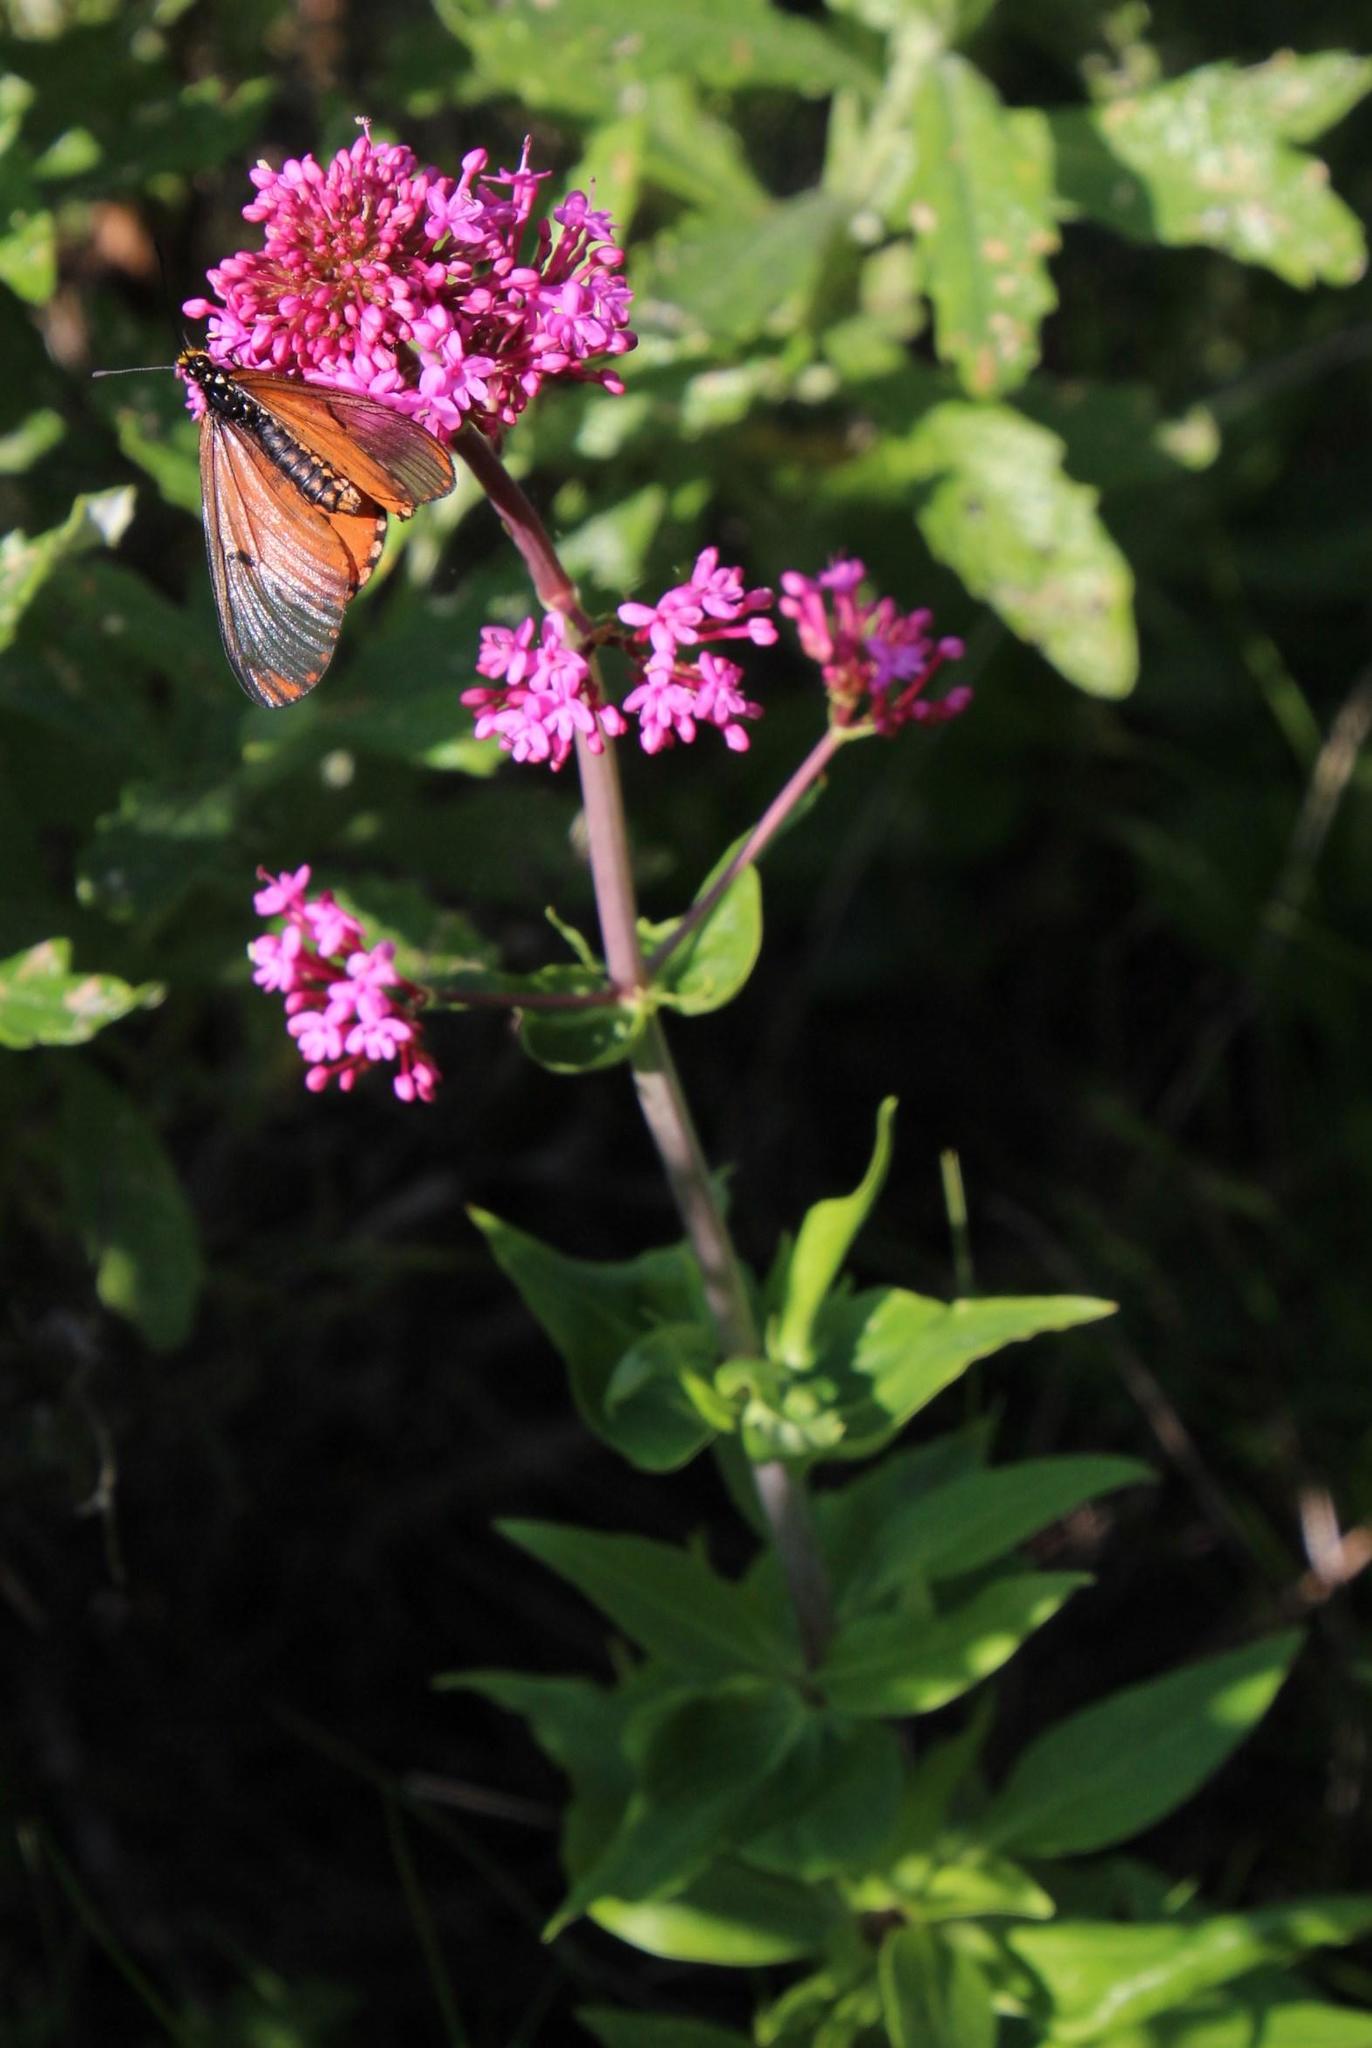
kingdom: Animalia
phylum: Arthropoda
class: Insecta
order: Lepidoptera
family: Nymphalidae
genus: Acraea
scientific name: Acraea horta
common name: Garden acraea
